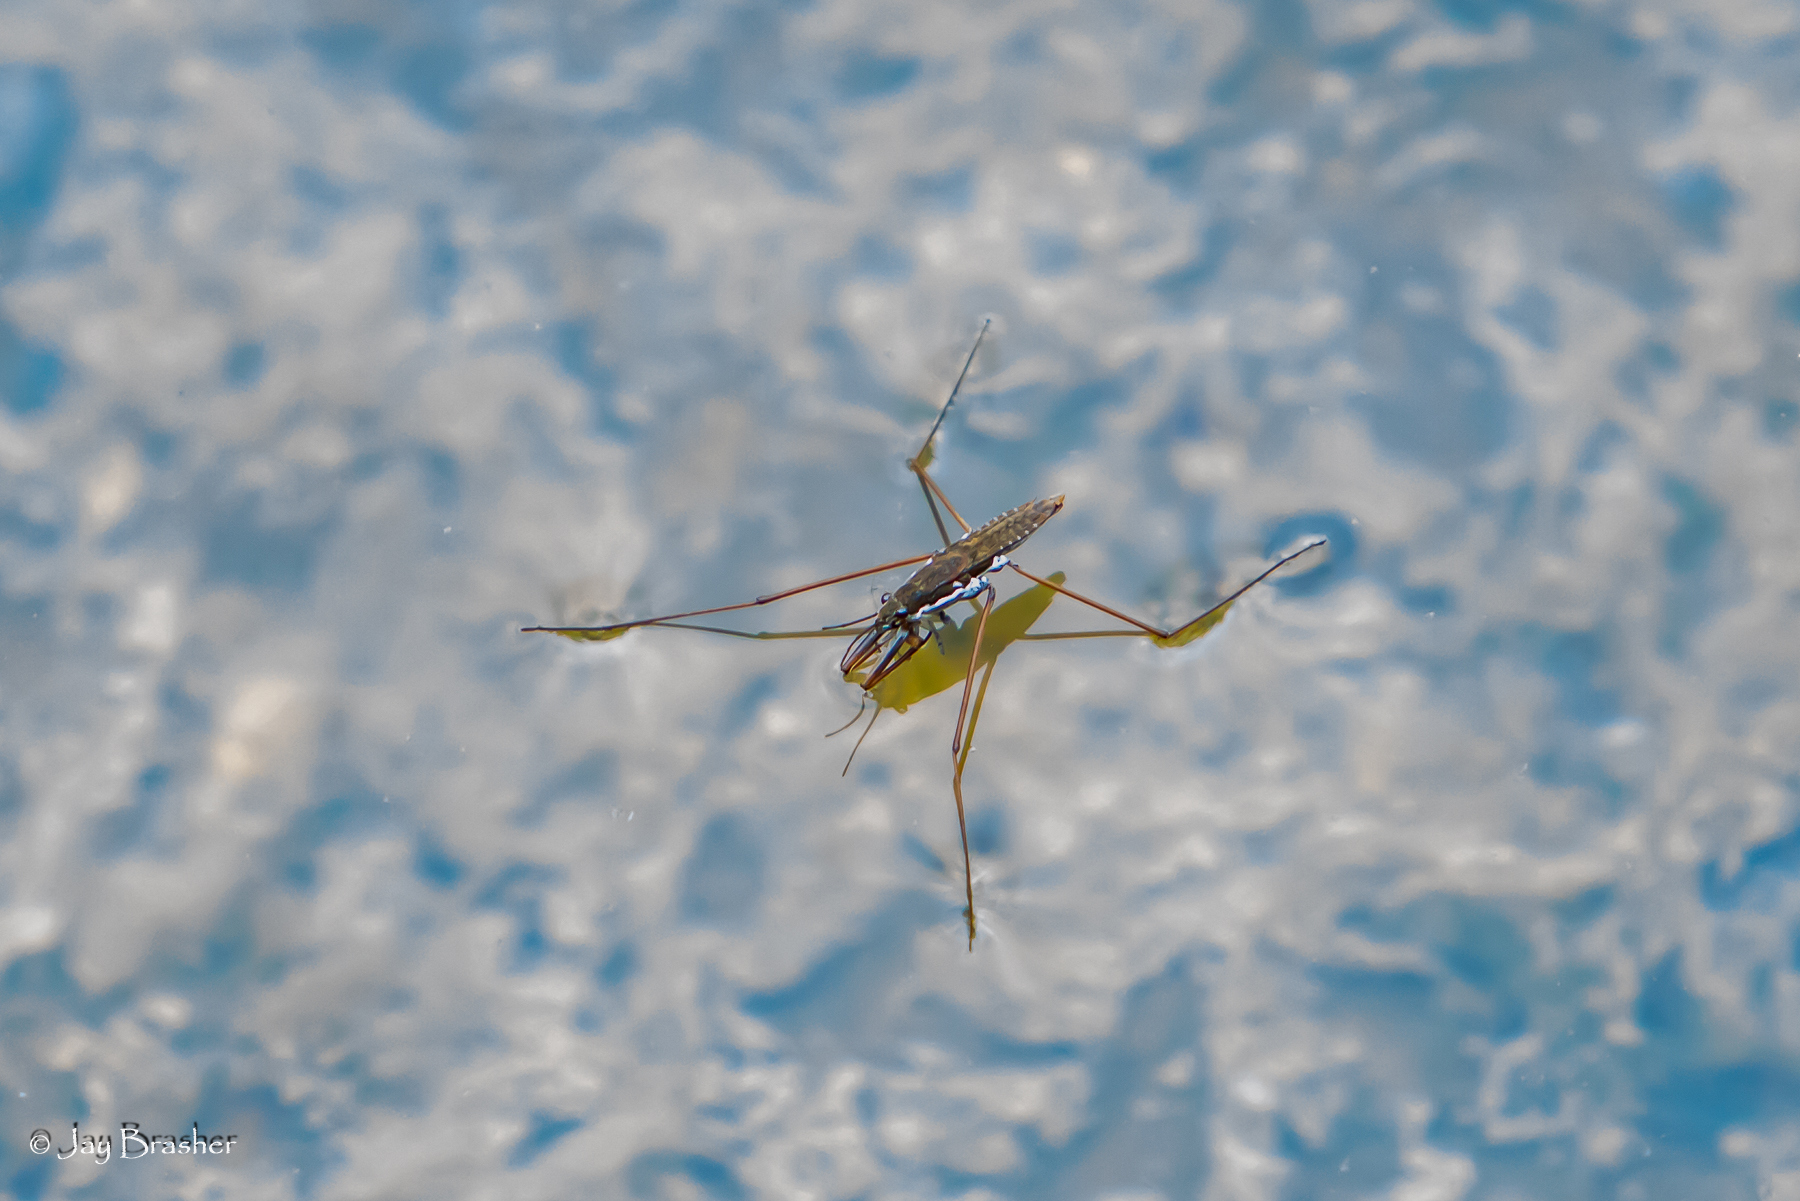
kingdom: Animalia
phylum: Arthropoda
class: Insecta
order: Hemiptera
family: Gerridae
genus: Aquarius
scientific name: Aquarius remigis
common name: Common water strider
